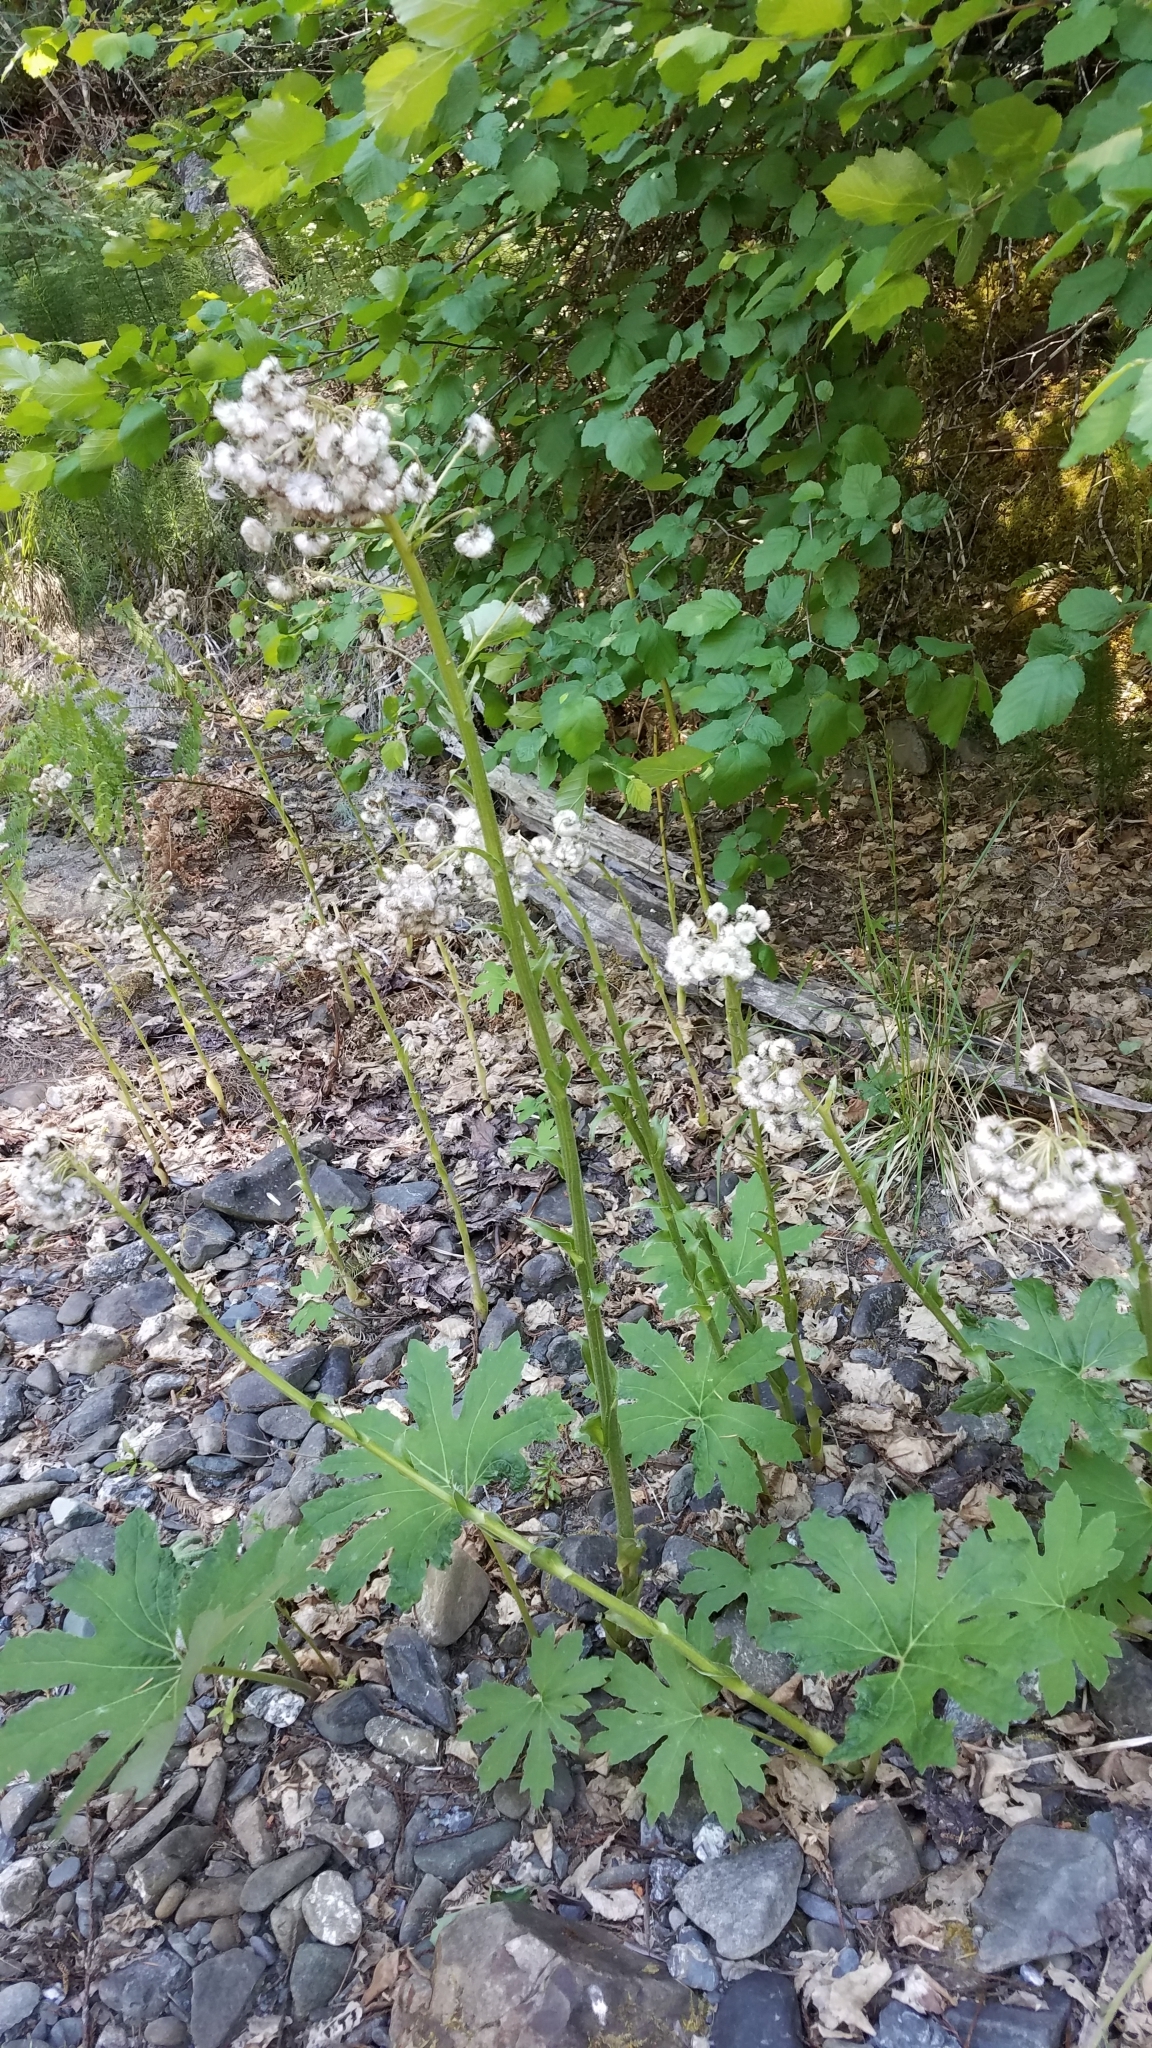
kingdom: Plantae
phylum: Tracheophyta
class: Magnoliopsida
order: Asterales
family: Asteraceae
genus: Petasites
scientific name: Petasites frigidus
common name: Arctic butterbur
